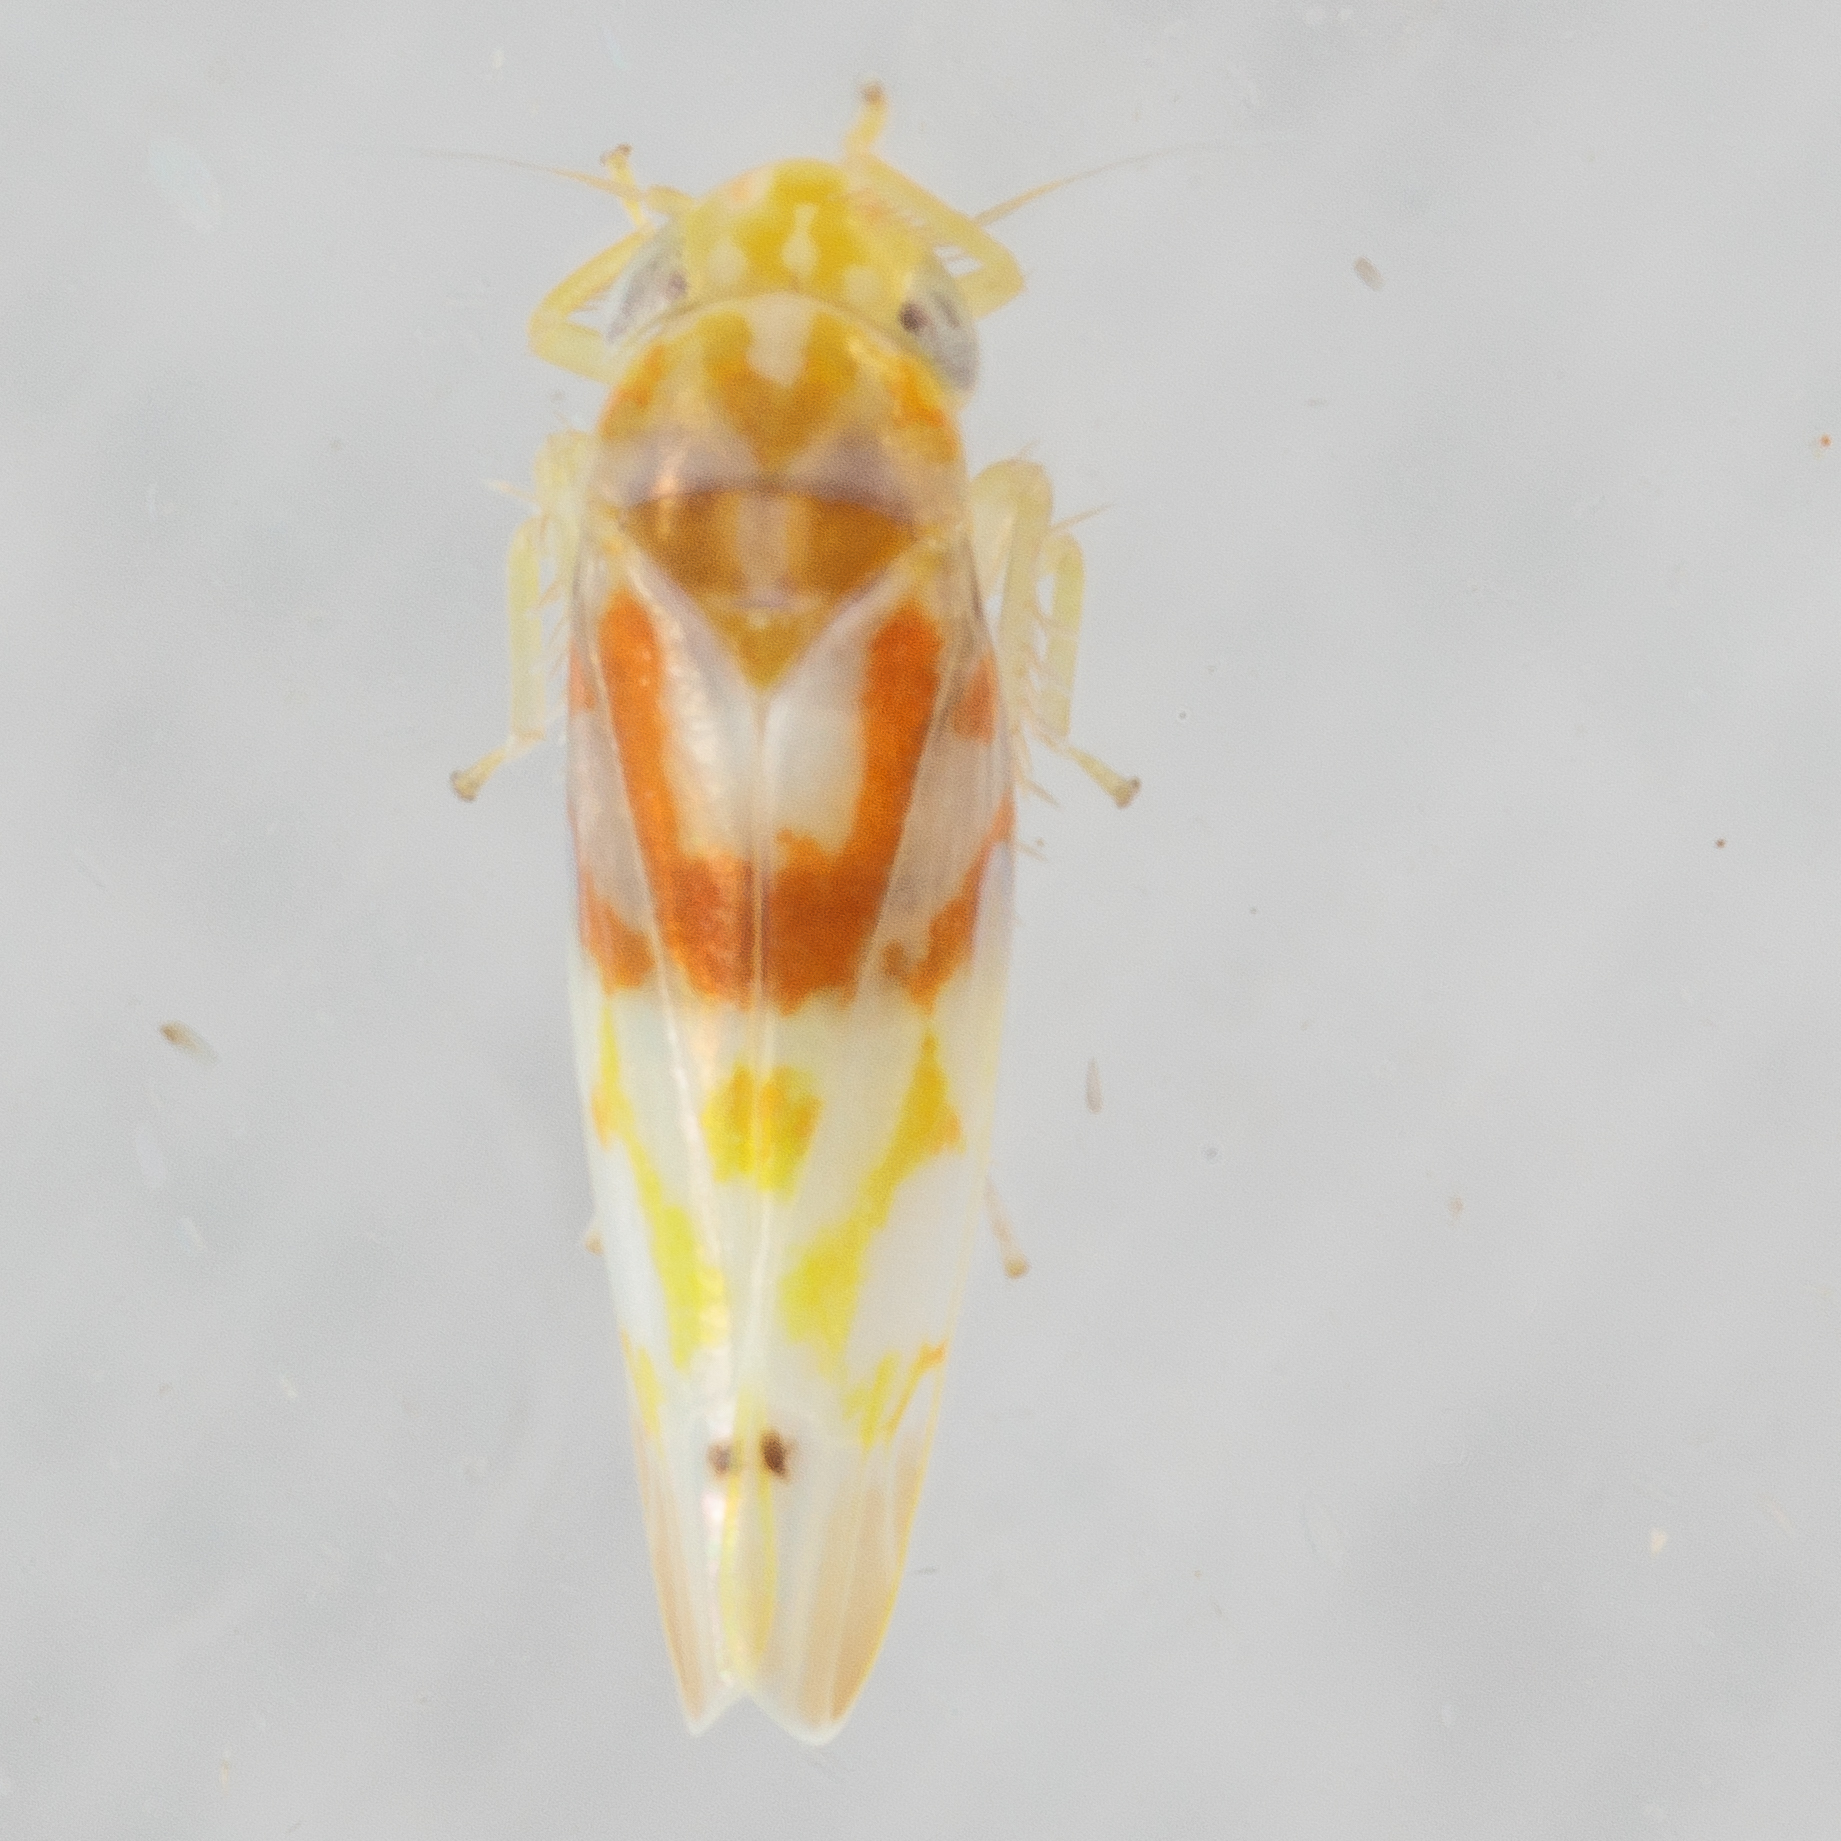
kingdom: Animalia
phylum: Arthropoda
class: Insecta
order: Hemiptera
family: Cicadellidae
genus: Eratoneura
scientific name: Eratoneura affinis
